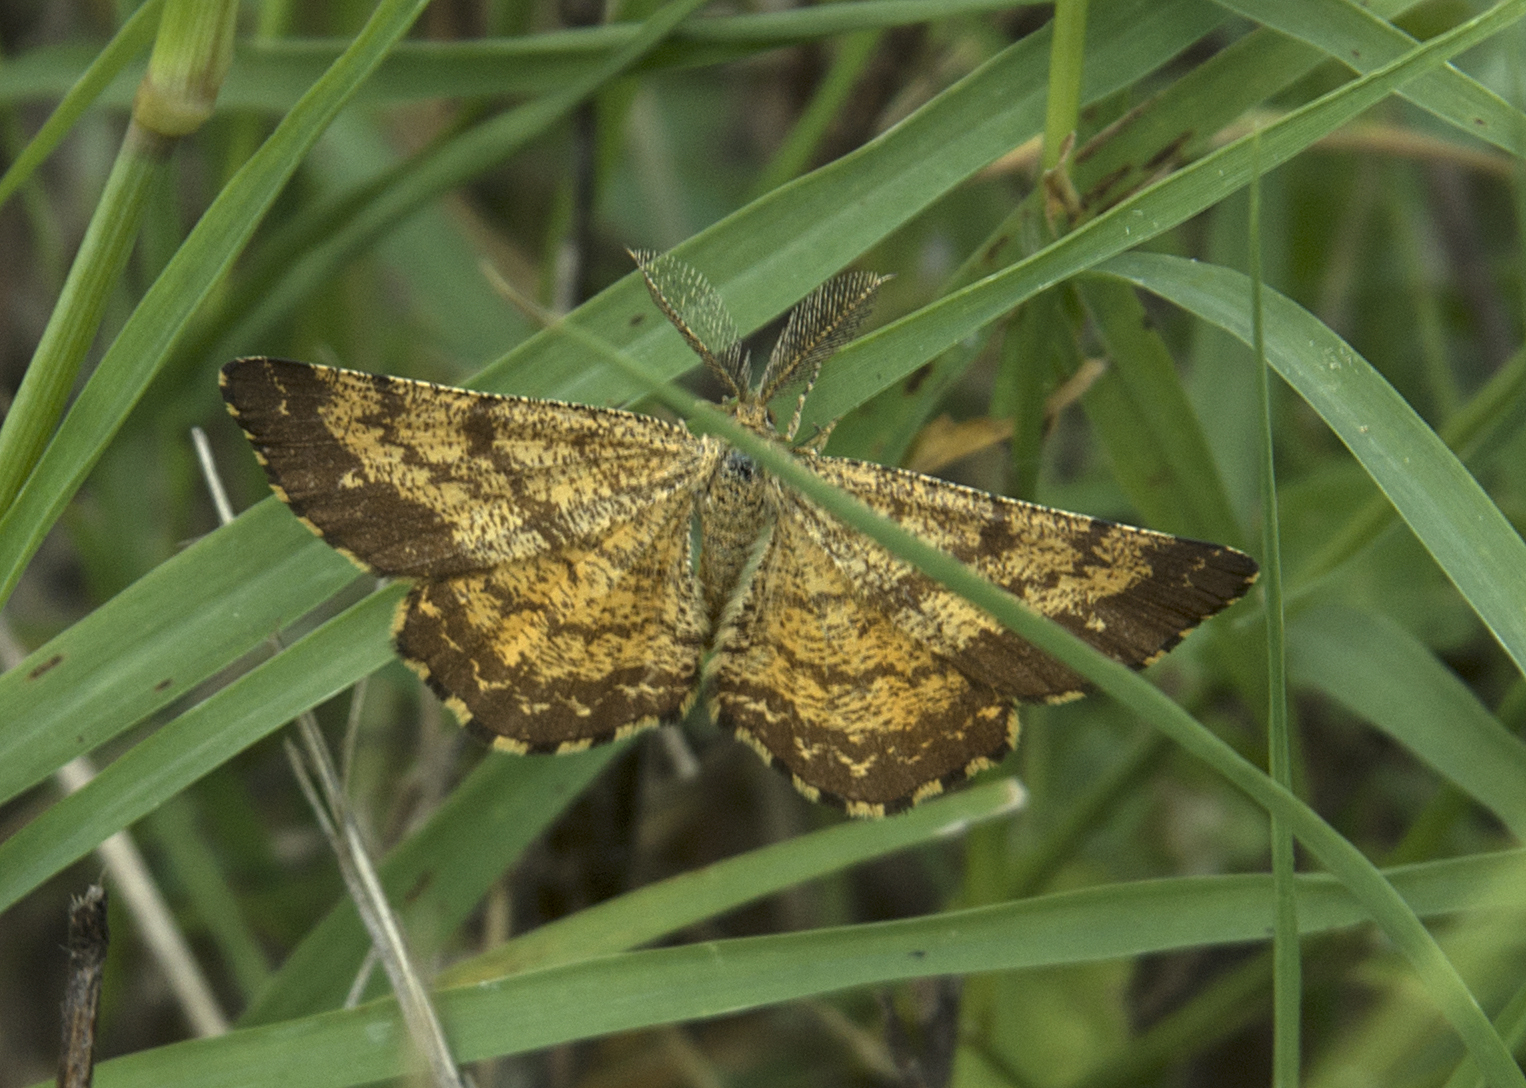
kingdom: Animalia
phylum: Arthropoda
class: Insecta
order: Lepidoptera
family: Geometridae
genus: Ematurga
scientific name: Ematurga atomaria
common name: Common heath
